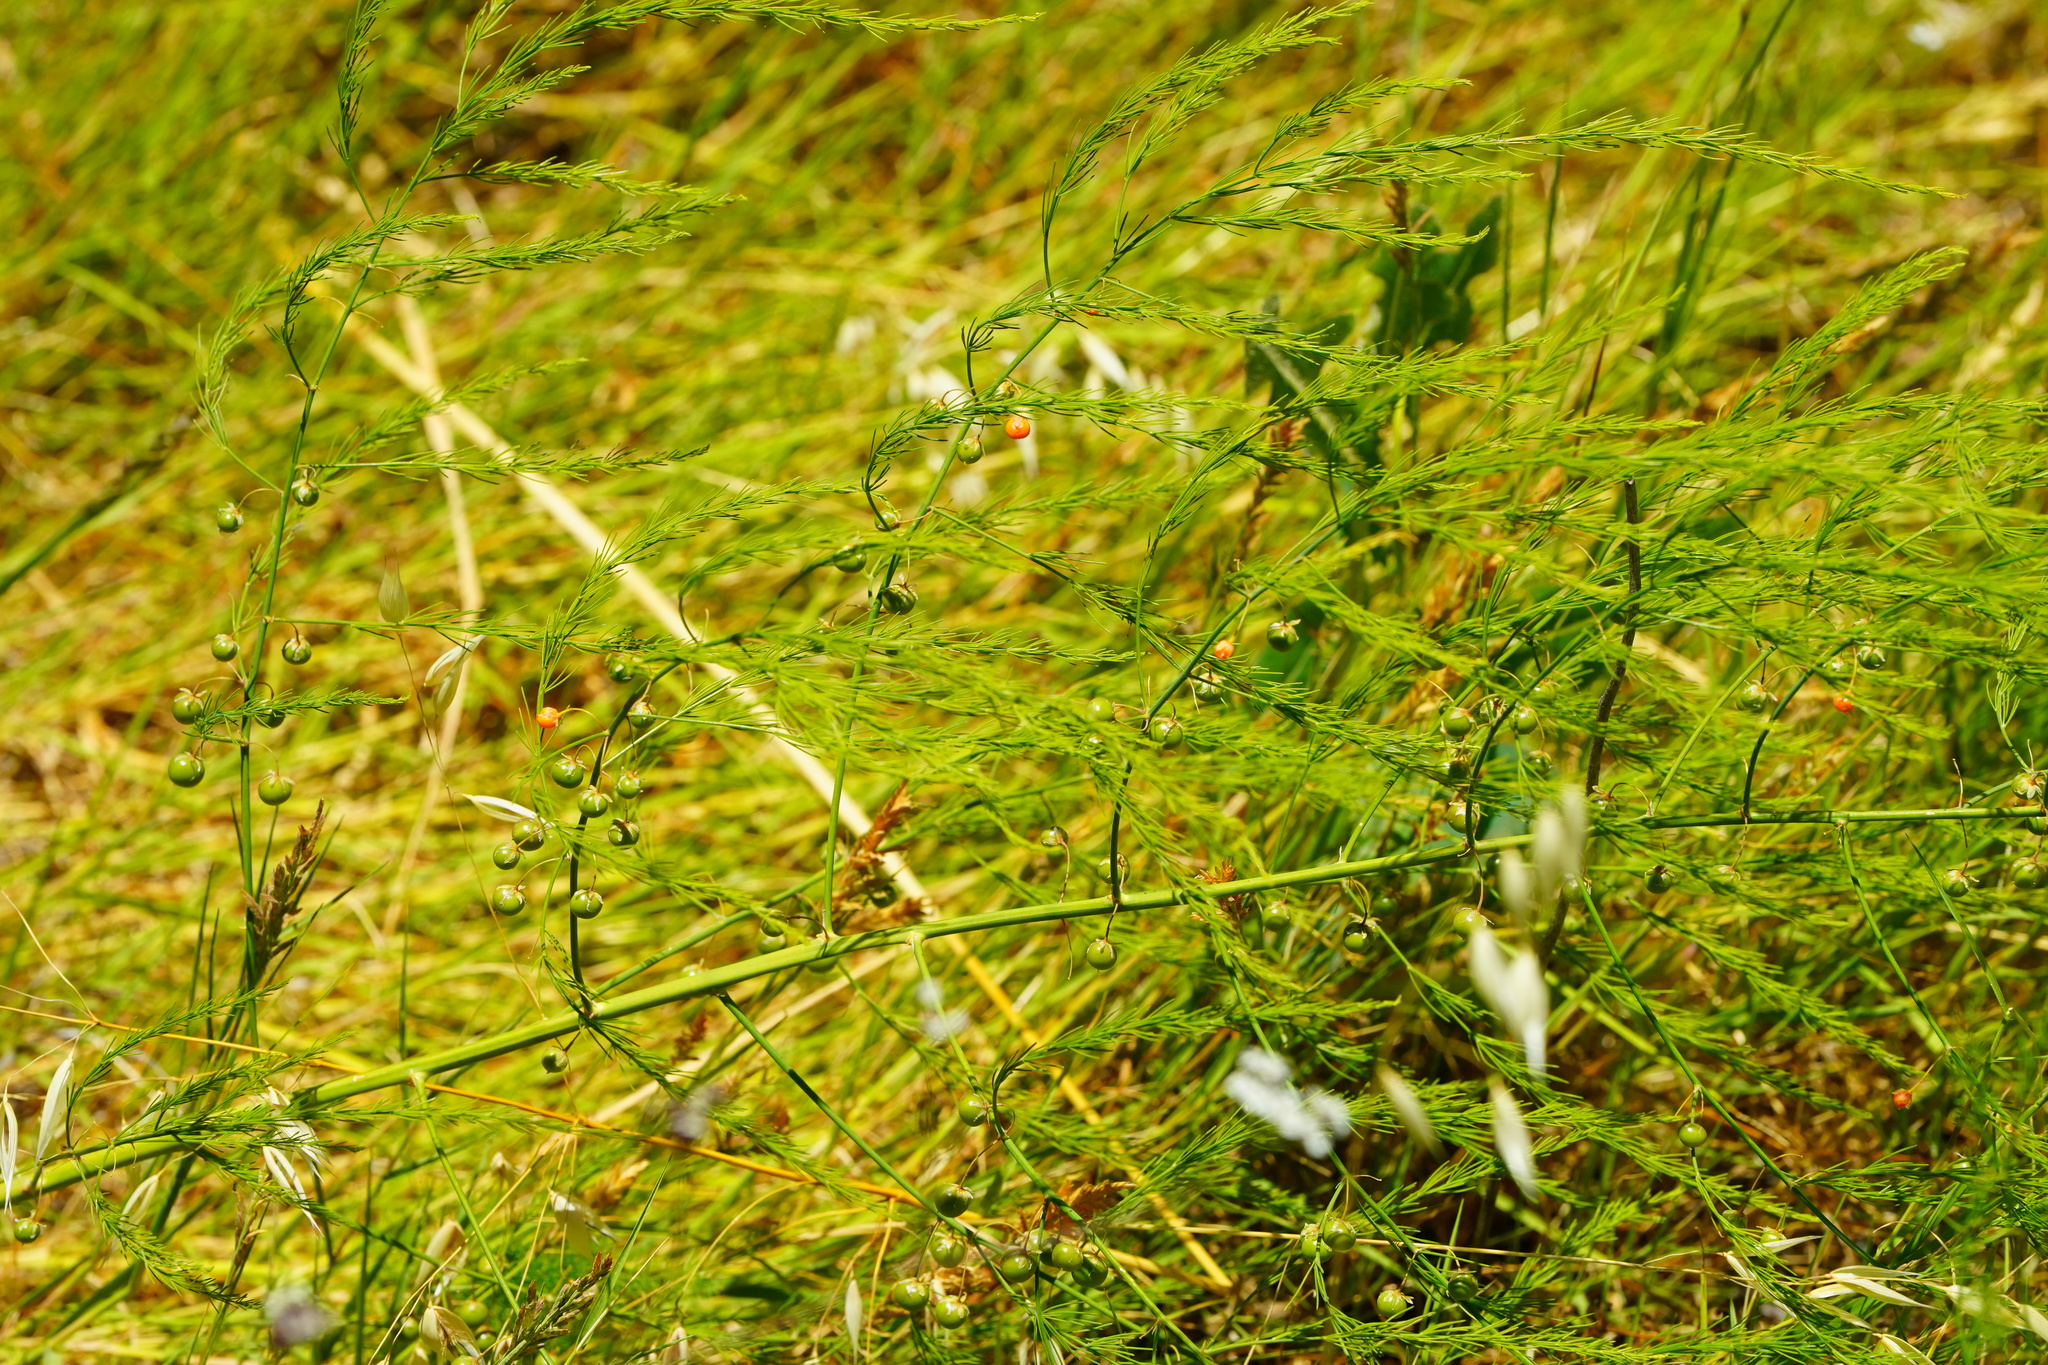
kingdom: Plantae
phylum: Tracheophyta
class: Liliopsida
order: Asparagales
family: Asparagaceae
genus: Asparagus
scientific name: Asparagus officinalis
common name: Garden asparagus
